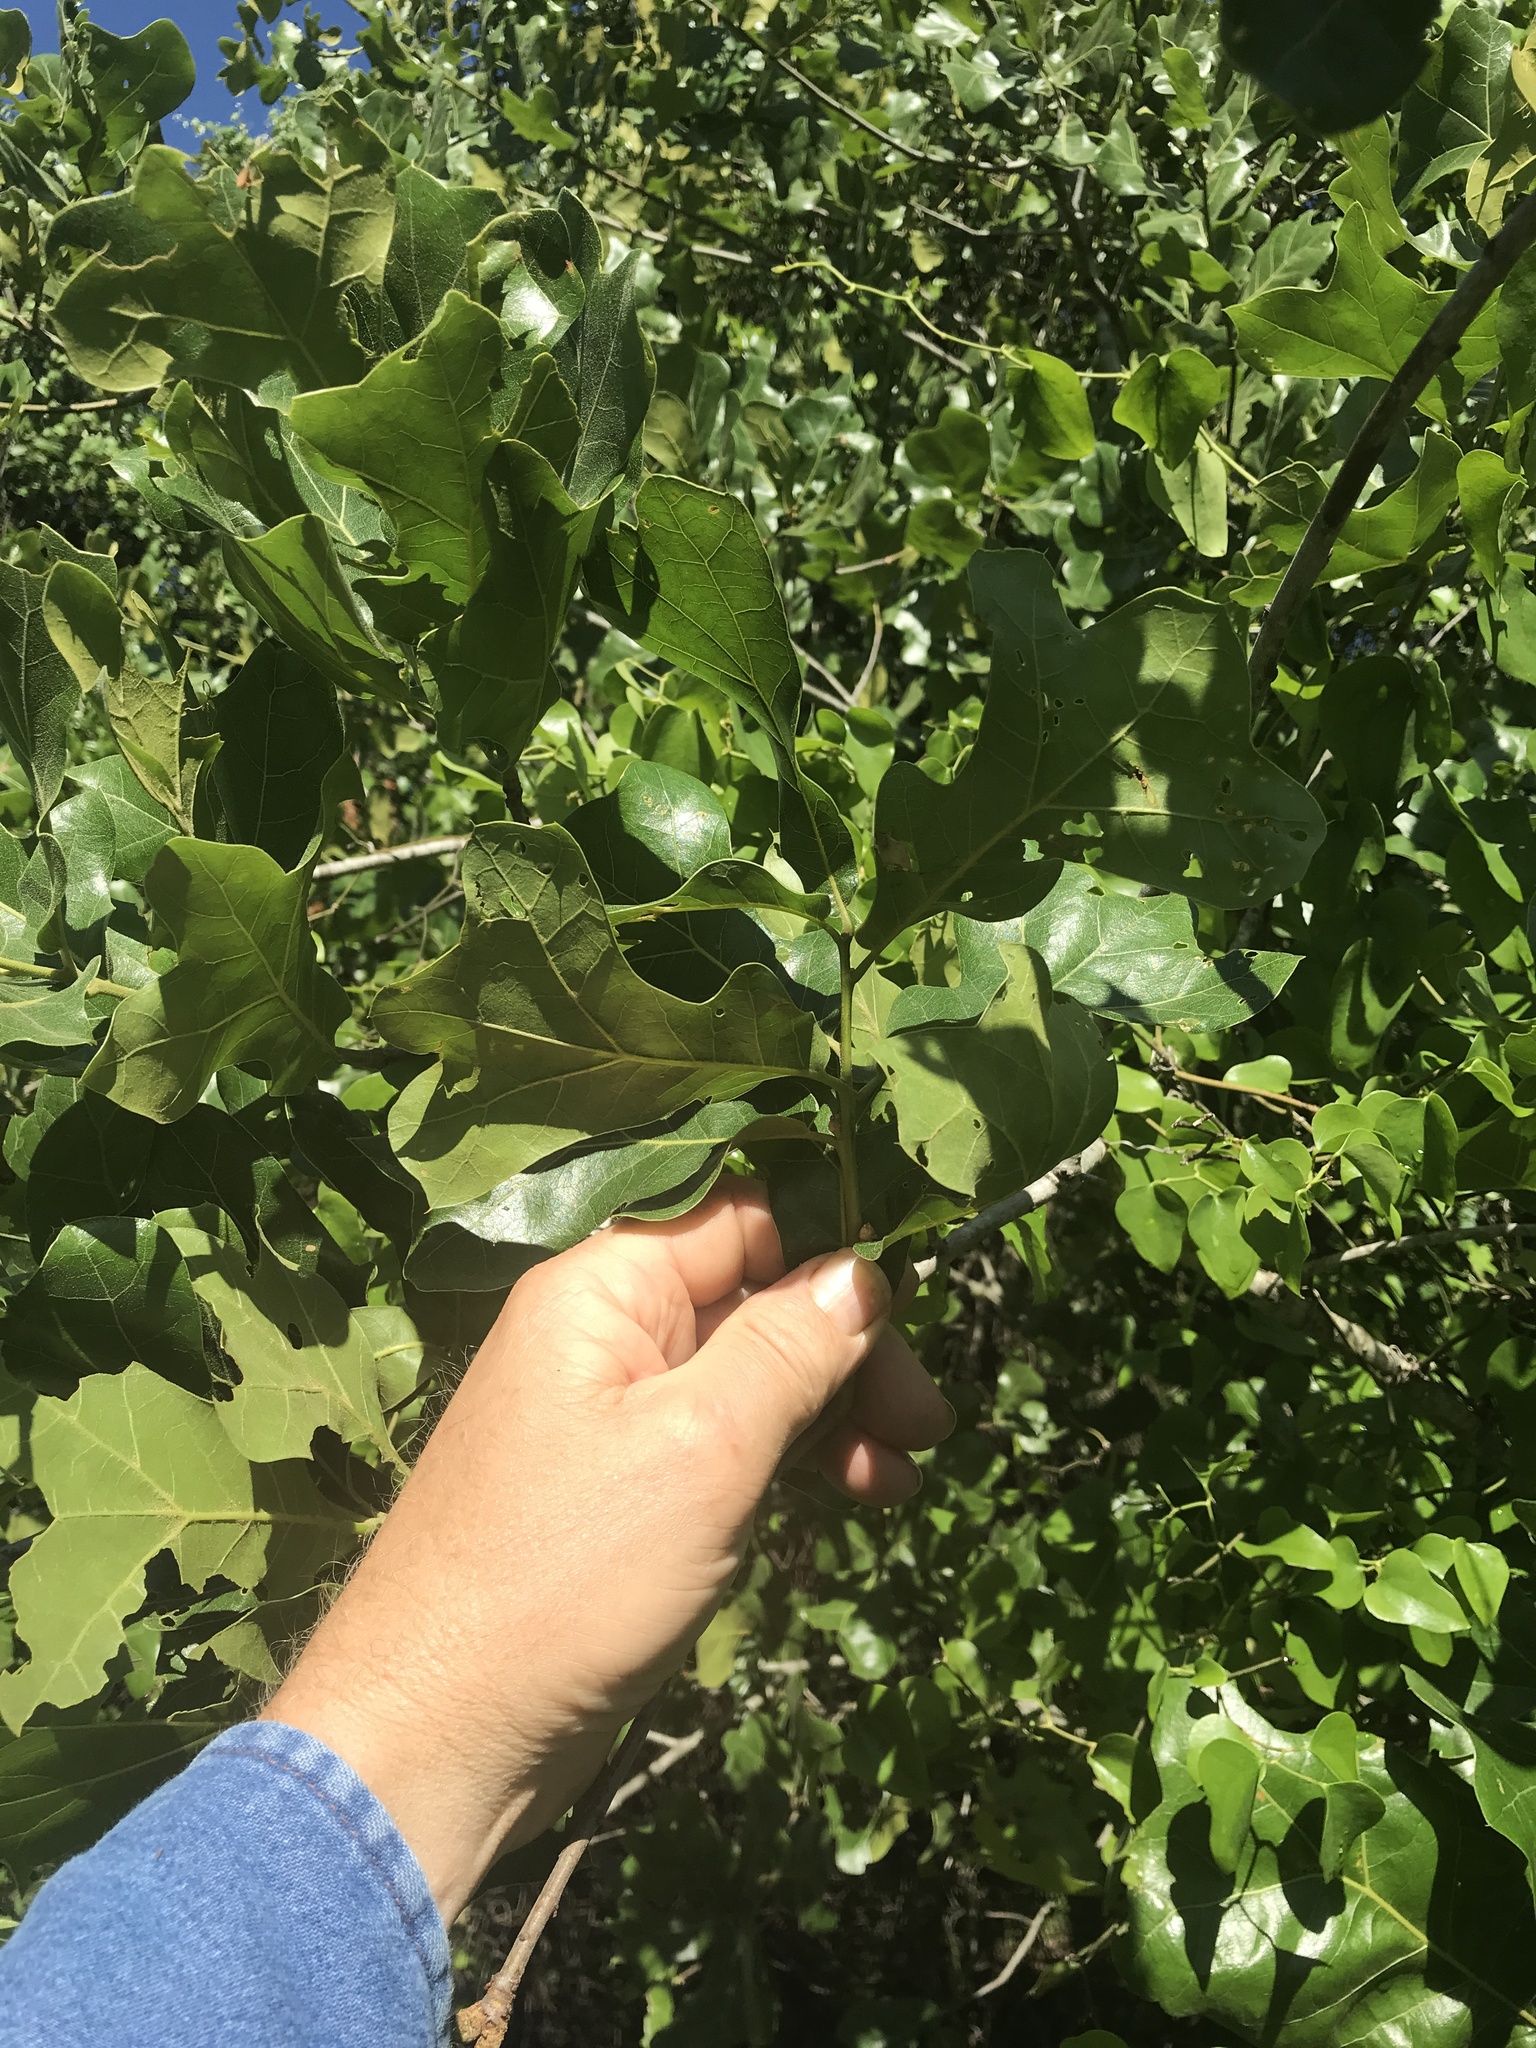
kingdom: Plantae
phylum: Tracheophyta
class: Magnoliopsida
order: Fagales
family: Fagaceae
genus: Quercus
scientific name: Quercus marilandica
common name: Blackjack oak
